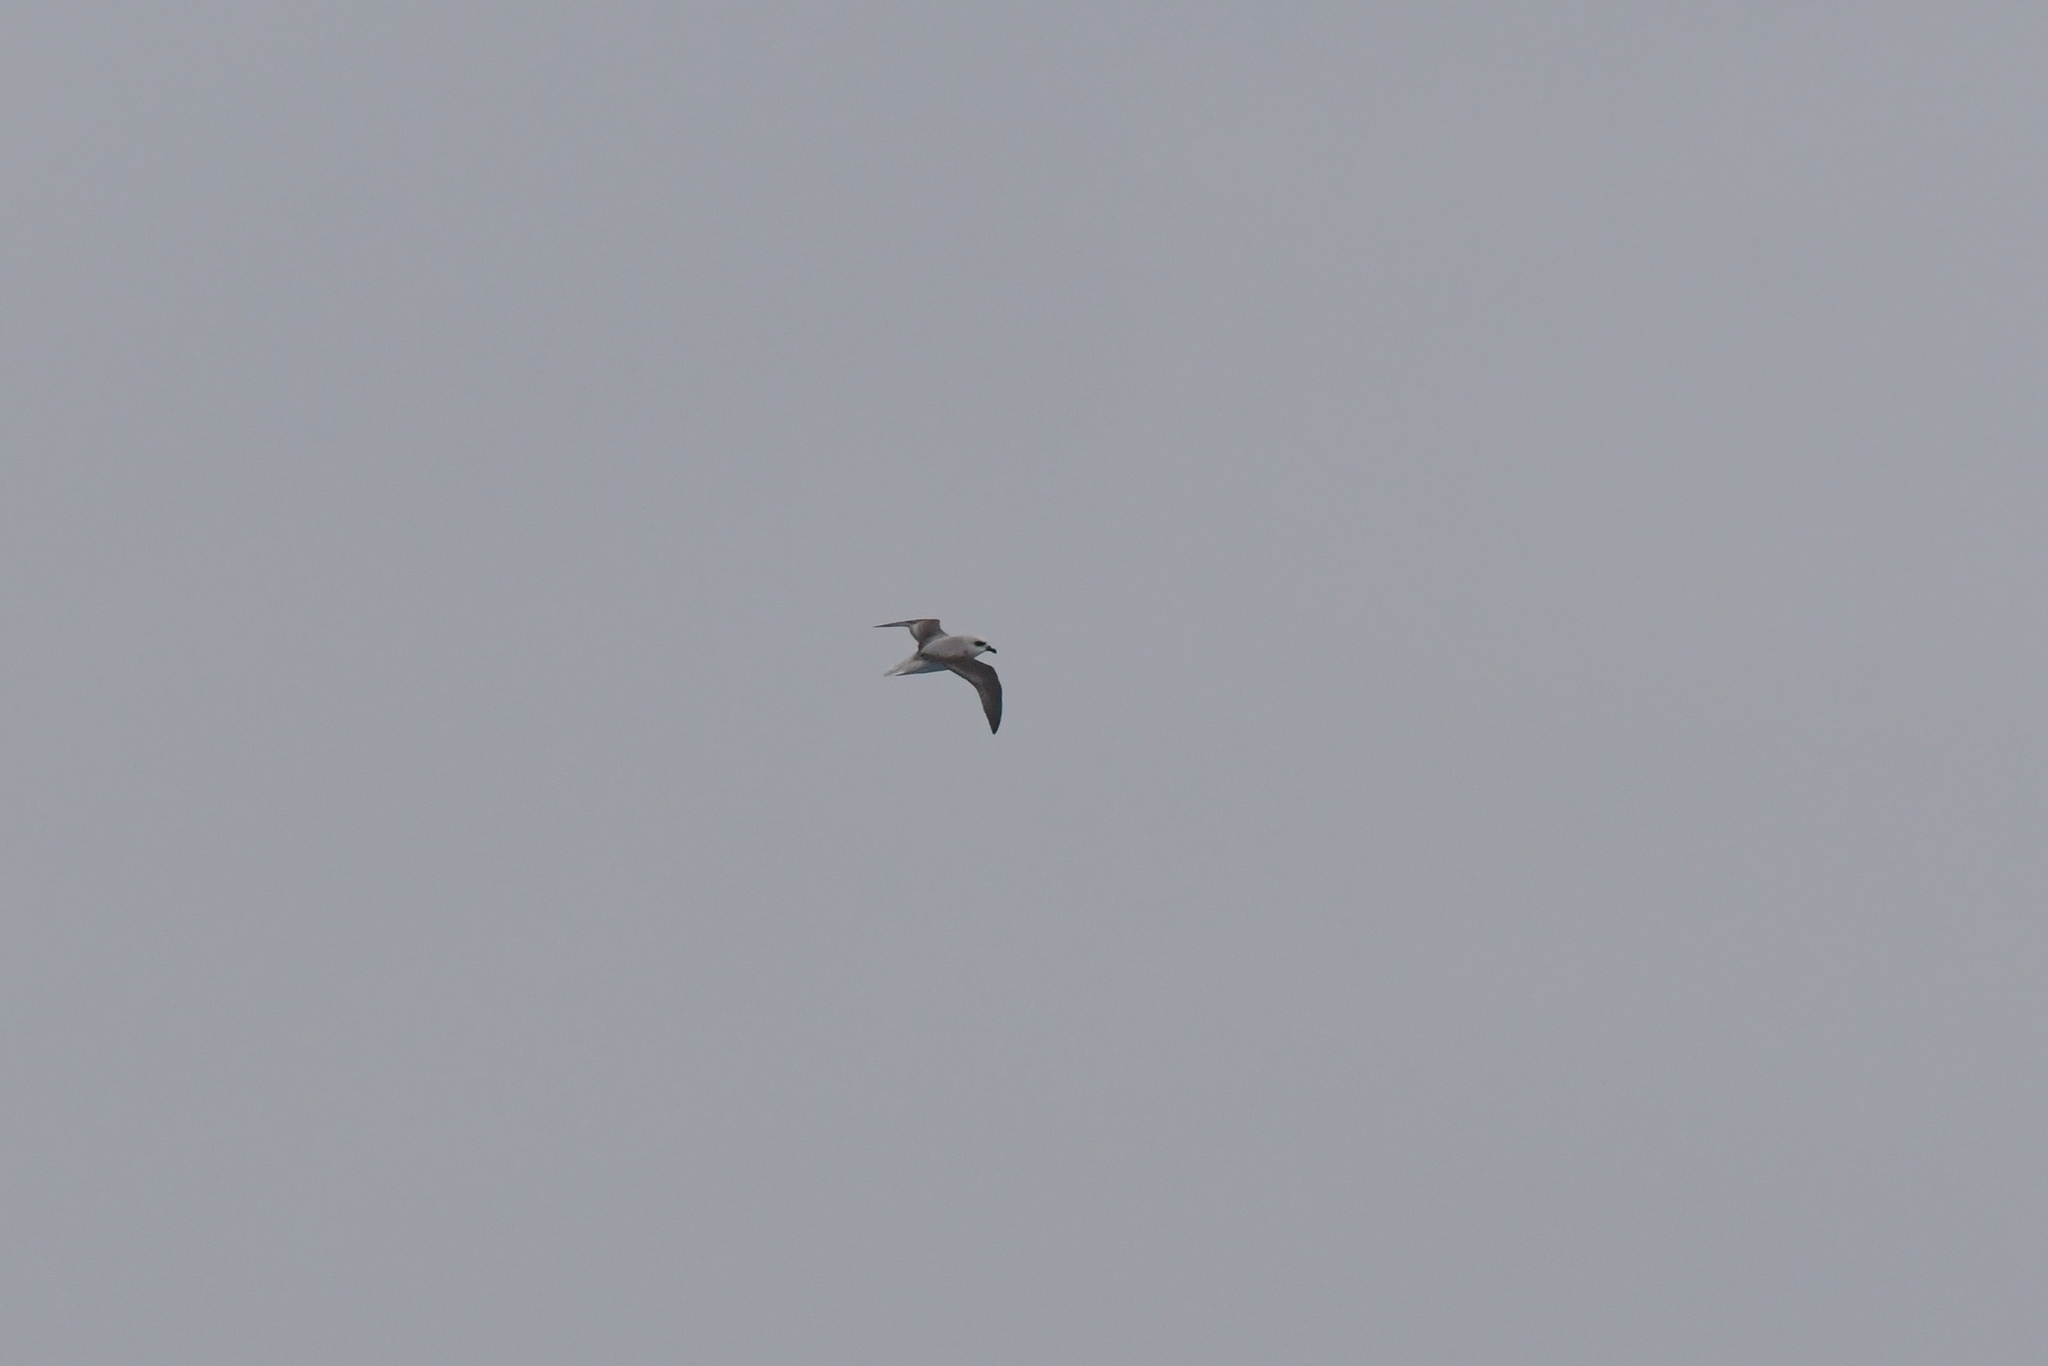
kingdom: Animalia
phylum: Chordata
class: Aves
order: Procellariiformes
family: Procellariidae
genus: Pterodroma
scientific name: Pterodroma lessonii
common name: White-headed petrel
